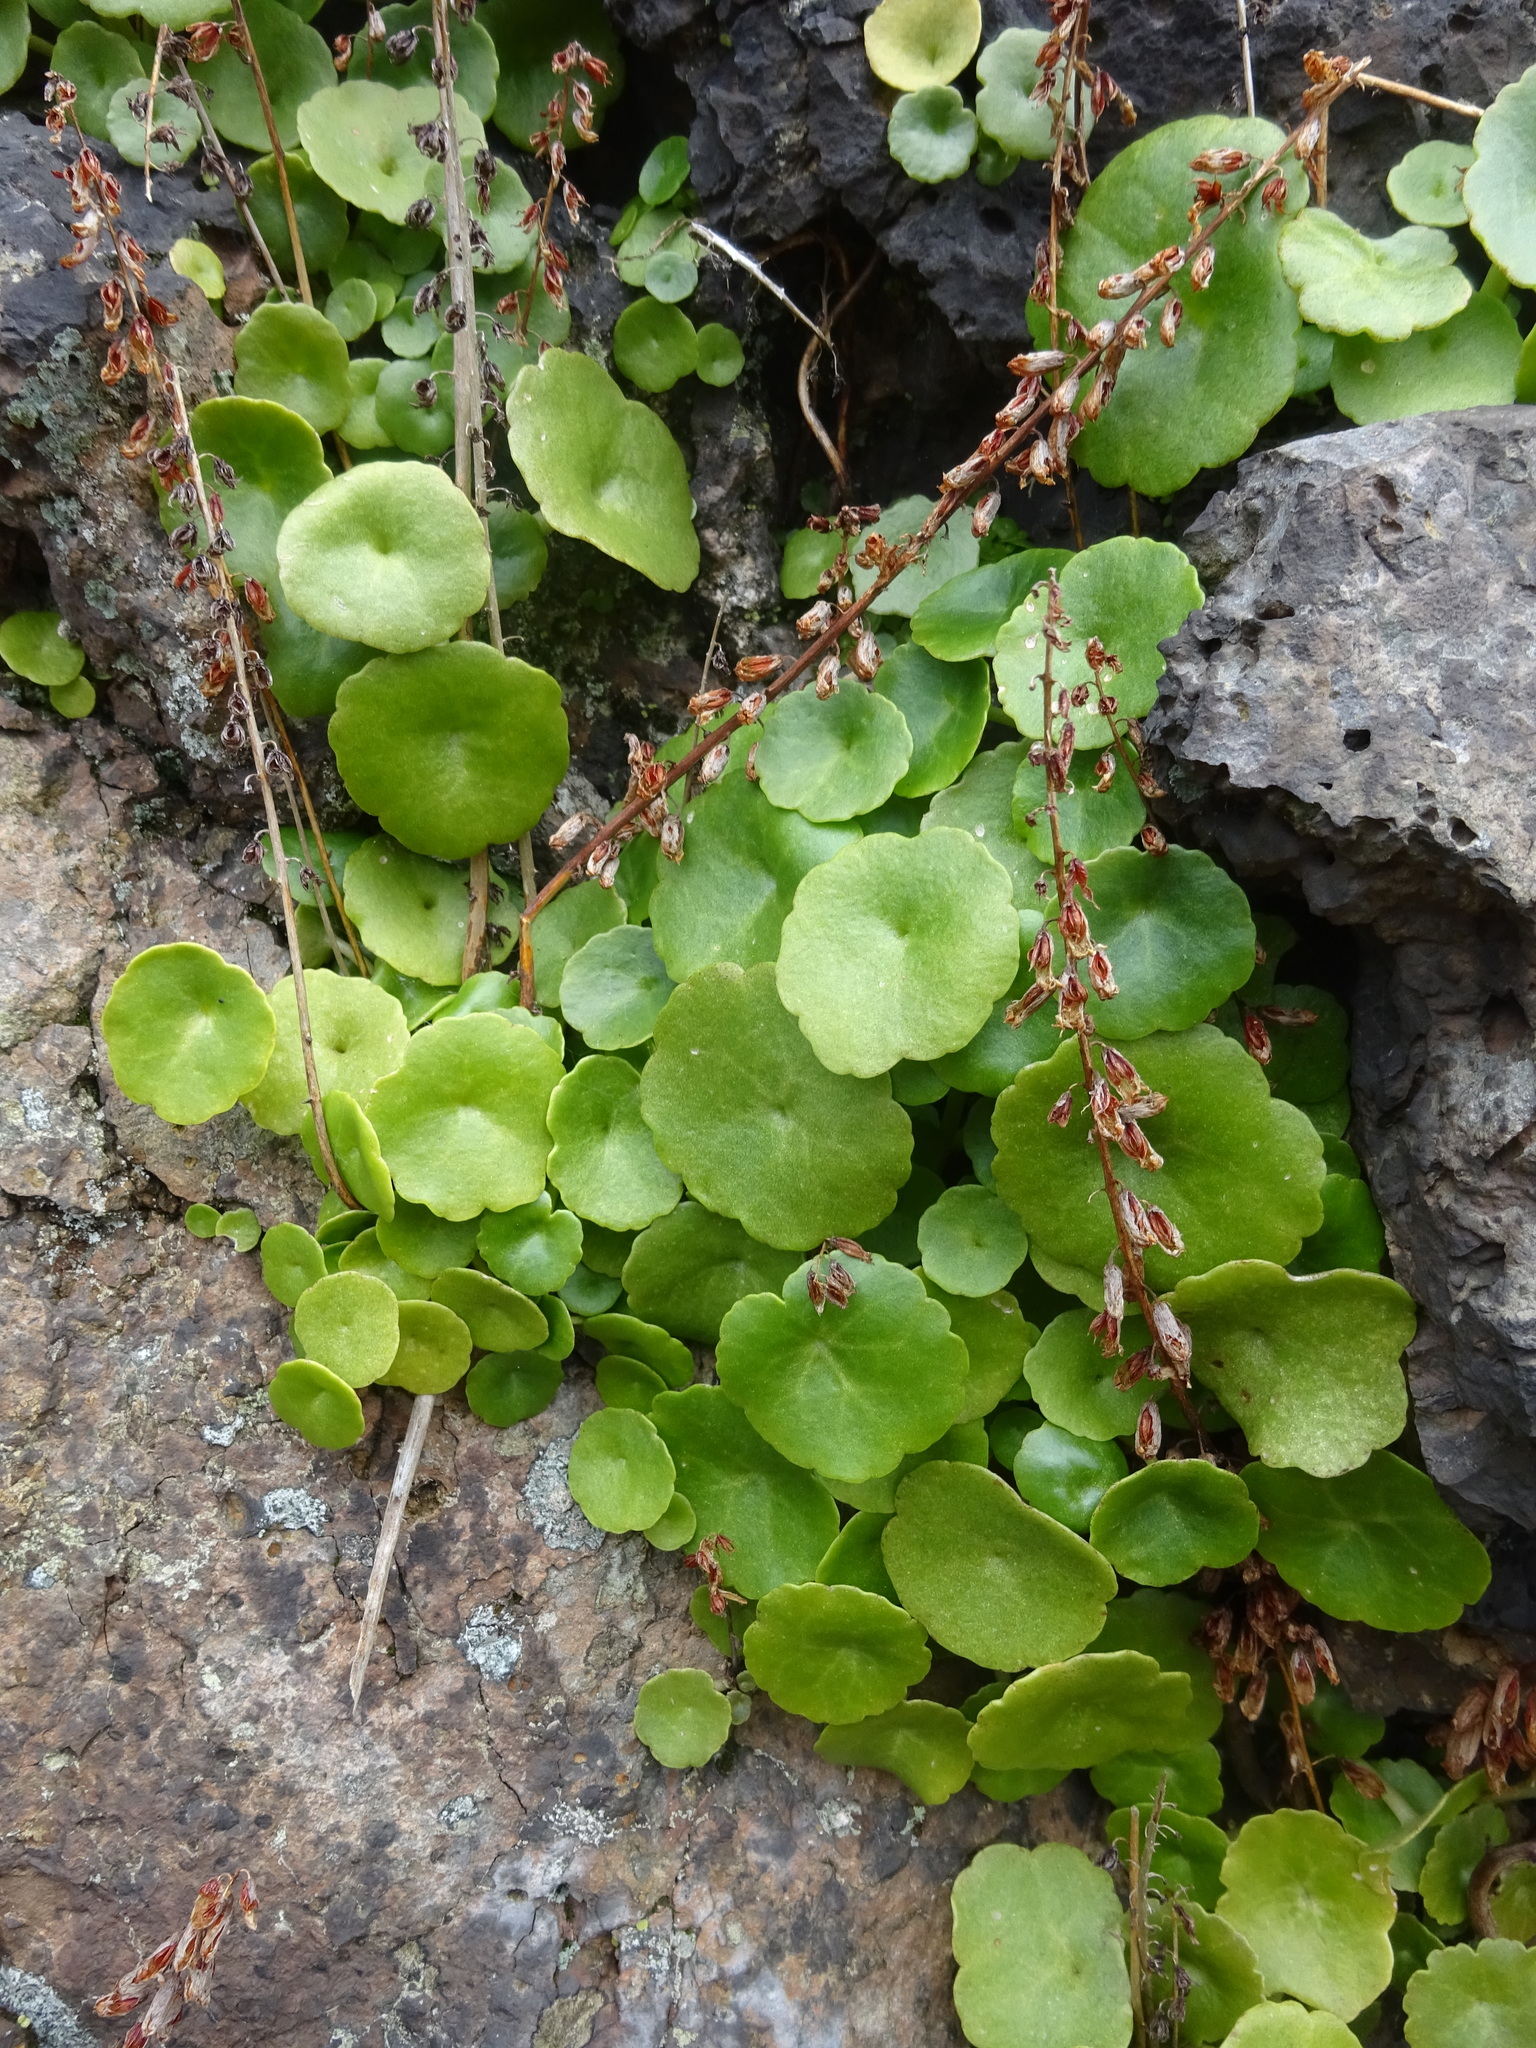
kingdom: Plantae
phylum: Tracheophyta
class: Magnoliopsida
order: Saxifragales
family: Crassulaceae
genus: Umbilicus
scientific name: Umbilicus rupestris
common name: Navelwort
